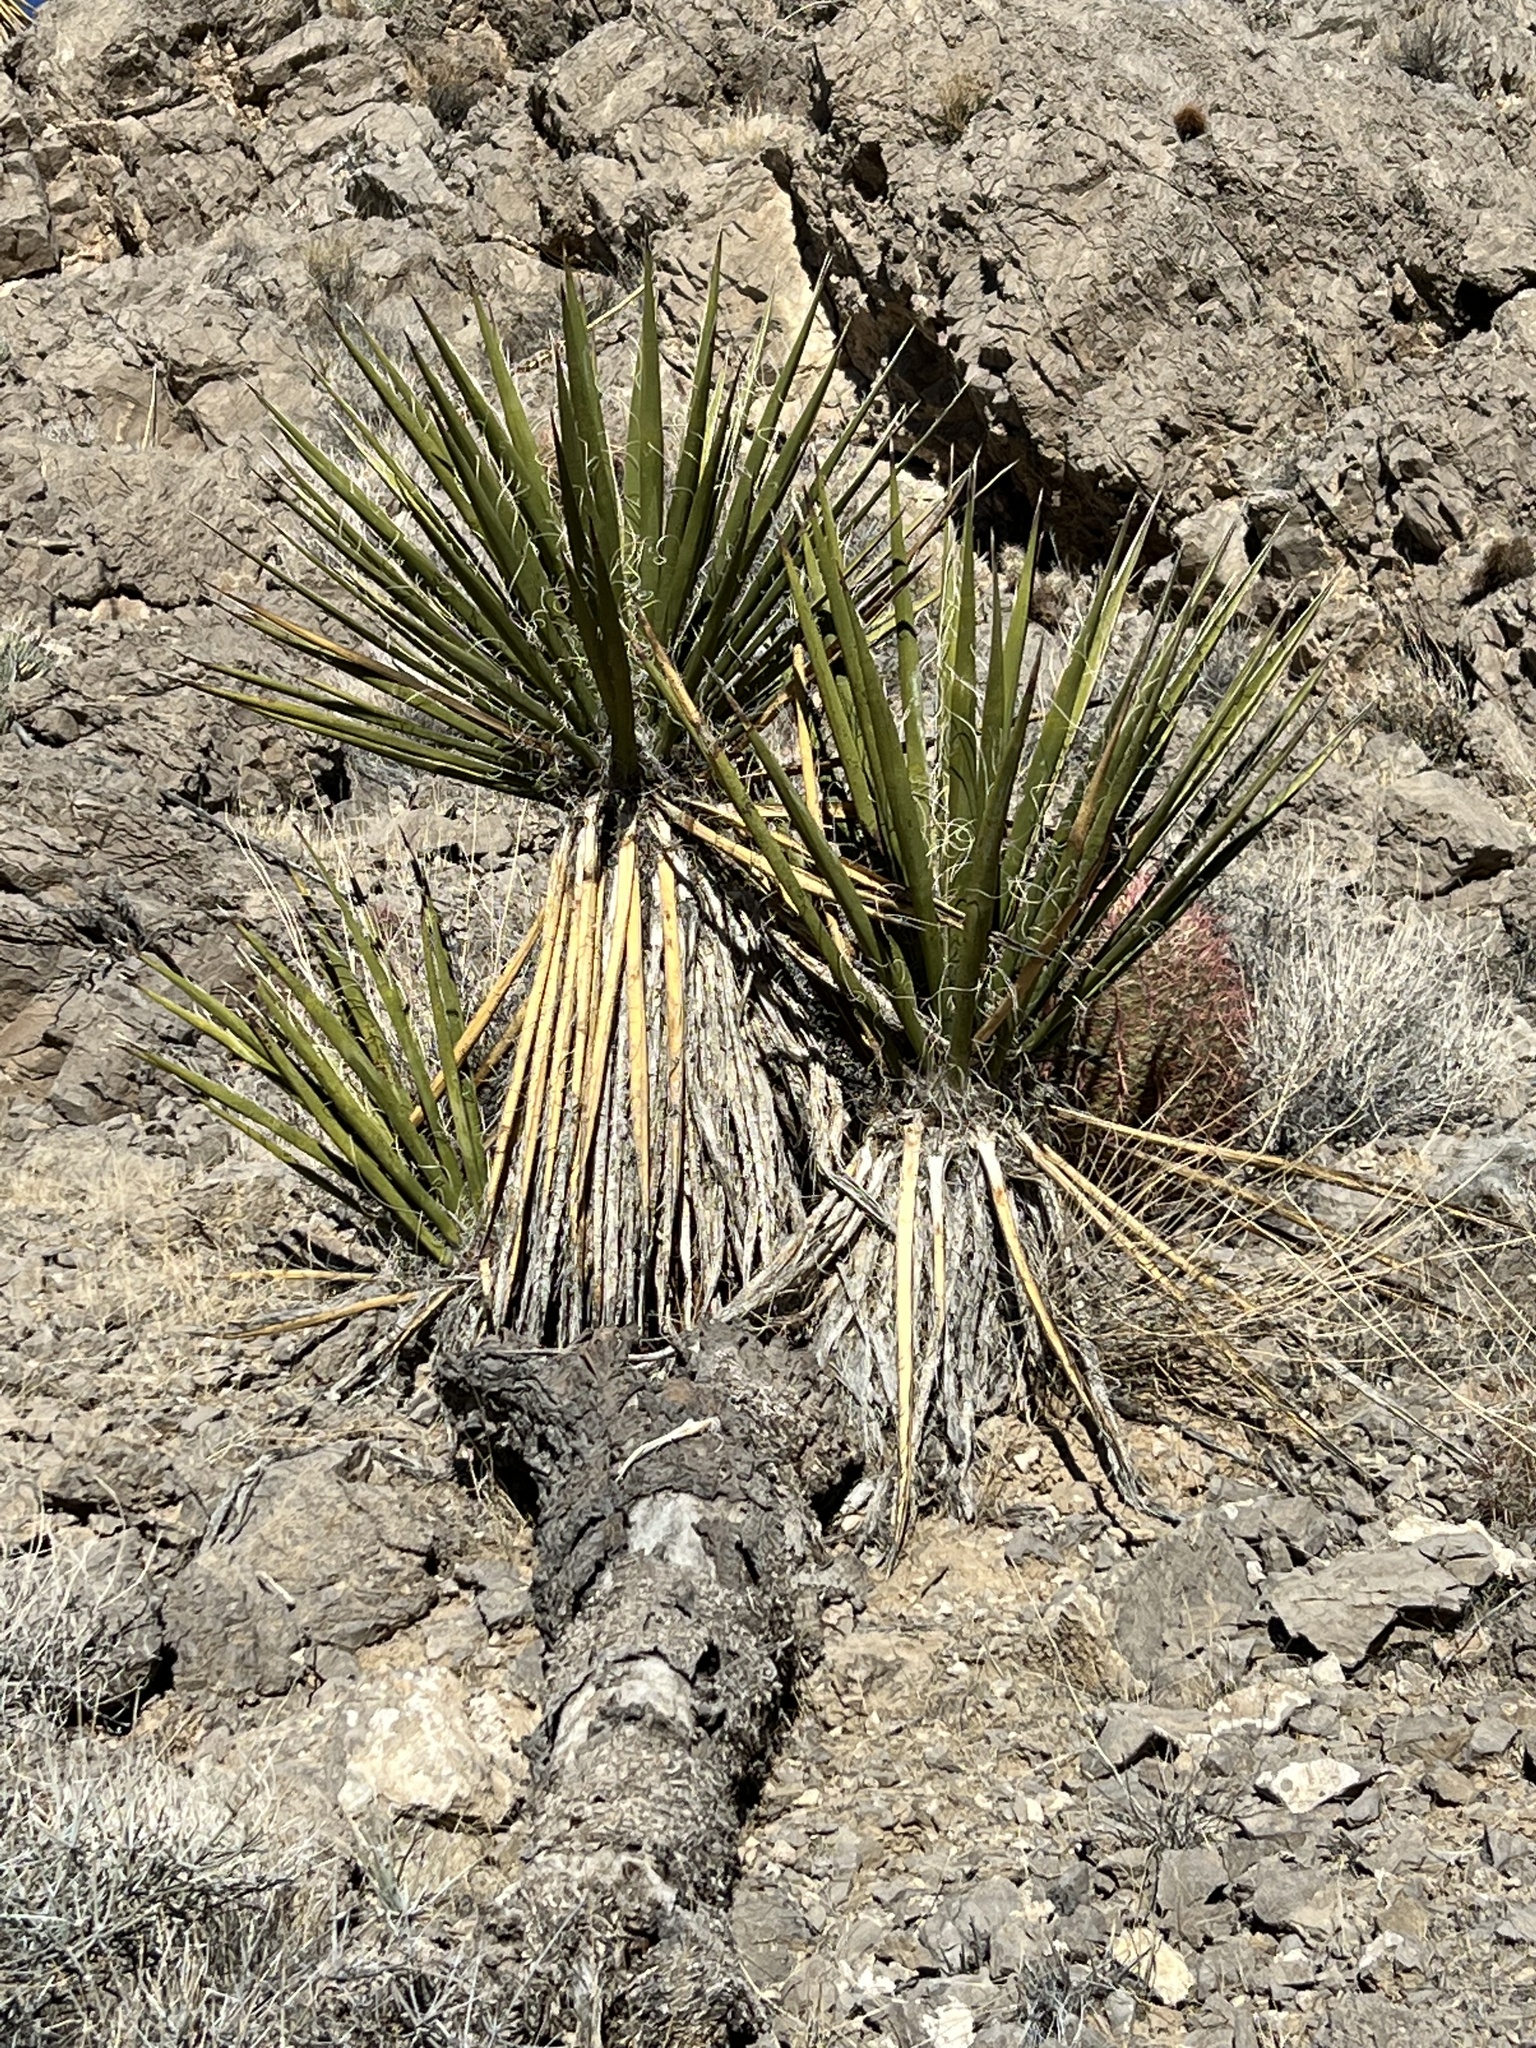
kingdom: Plantae
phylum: Tracheophyta
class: Liliopsida
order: Asparagales
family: Asparagaceae
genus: Yucca
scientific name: Yucca schidigera
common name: Mojave yucca
